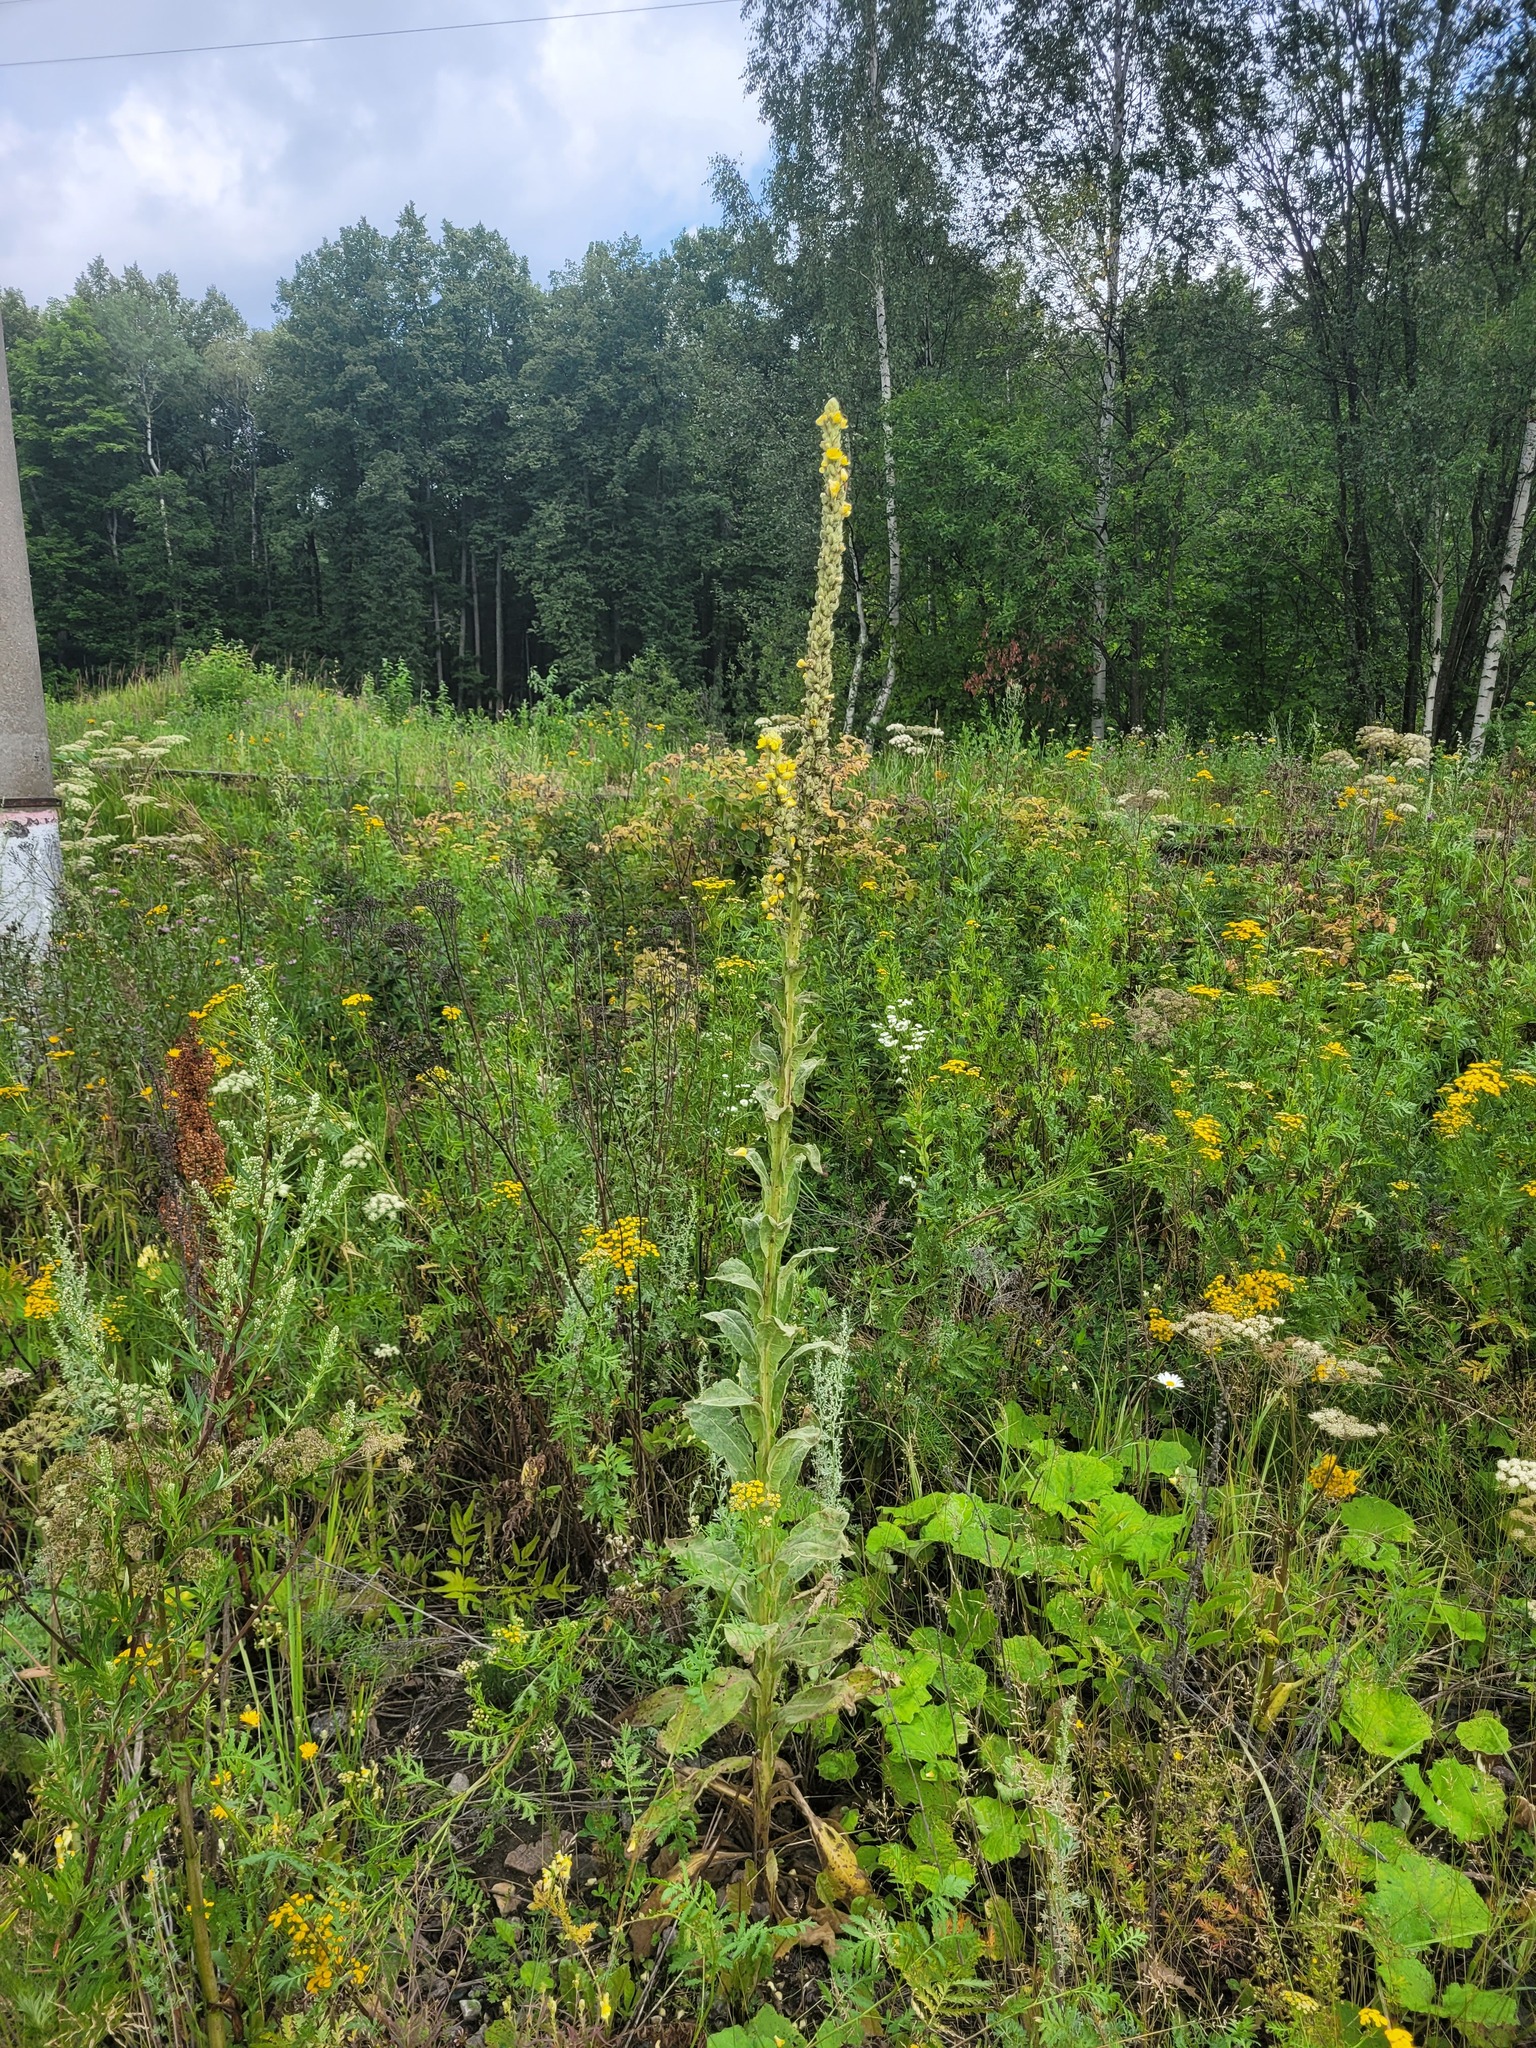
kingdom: Plantae
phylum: Tracheophyta
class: Magnoliopsida
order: Lamiales
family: Scrophulariaceae
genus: Verbascum
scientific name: Verbascum thapsus
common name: Common mullein
